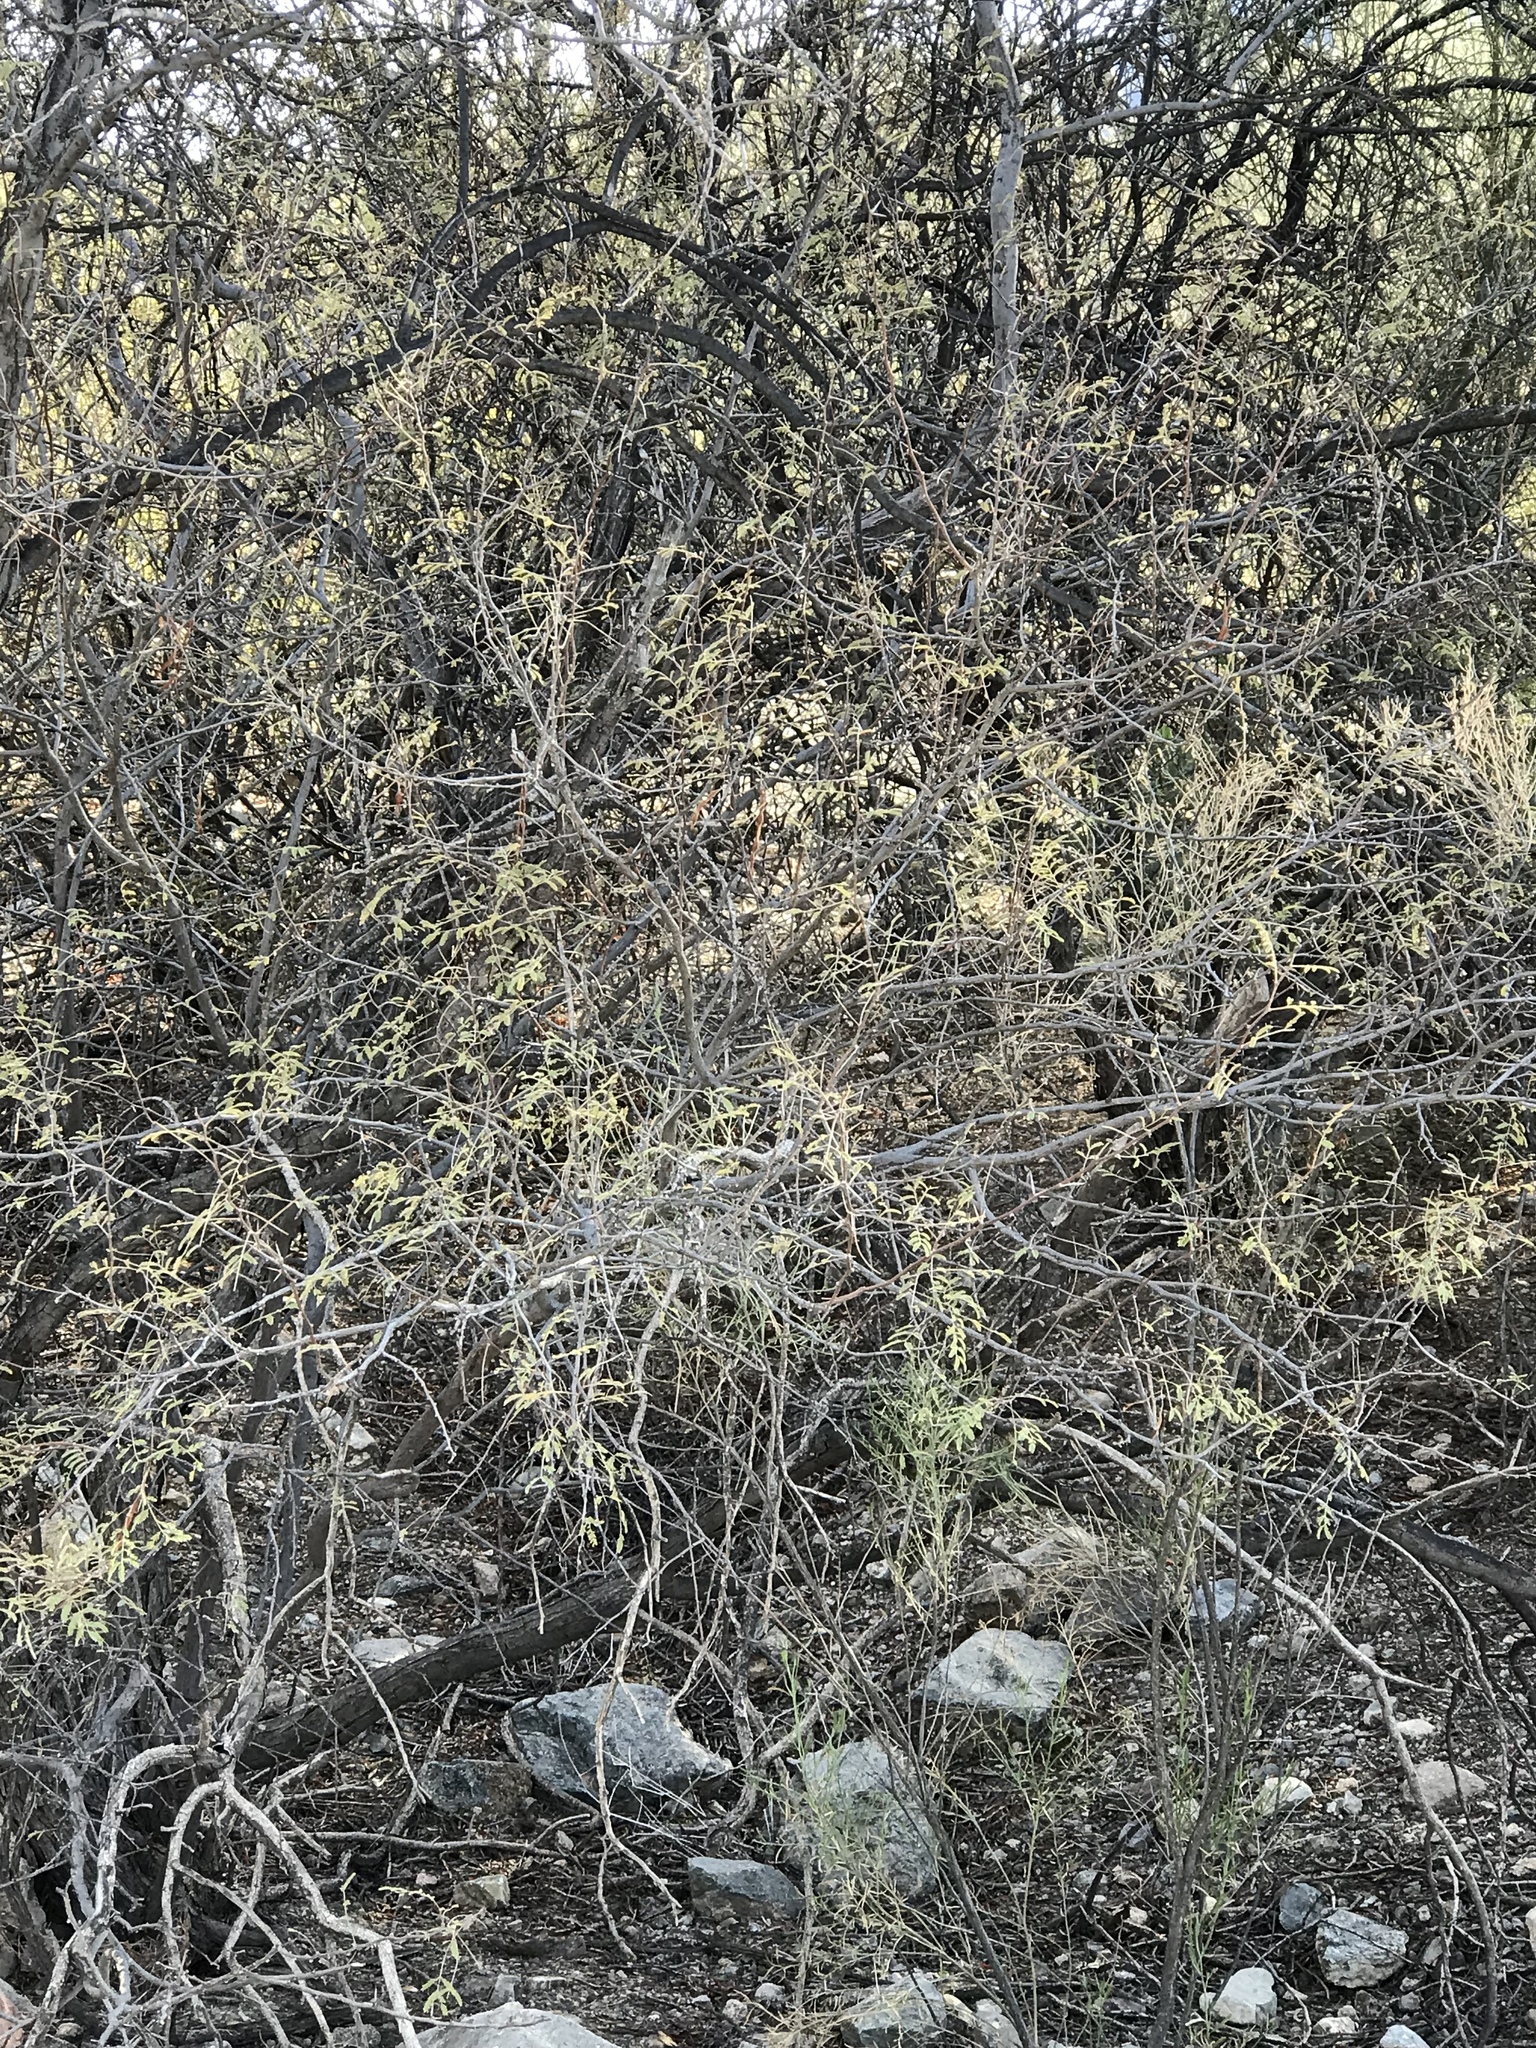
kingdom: Plantae
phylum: Tracheophyta
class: Magnoliopsida
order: Fabales
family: Fabaceae
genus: Vachellia
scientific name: Vachellia constricta
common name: Mescat acacia
